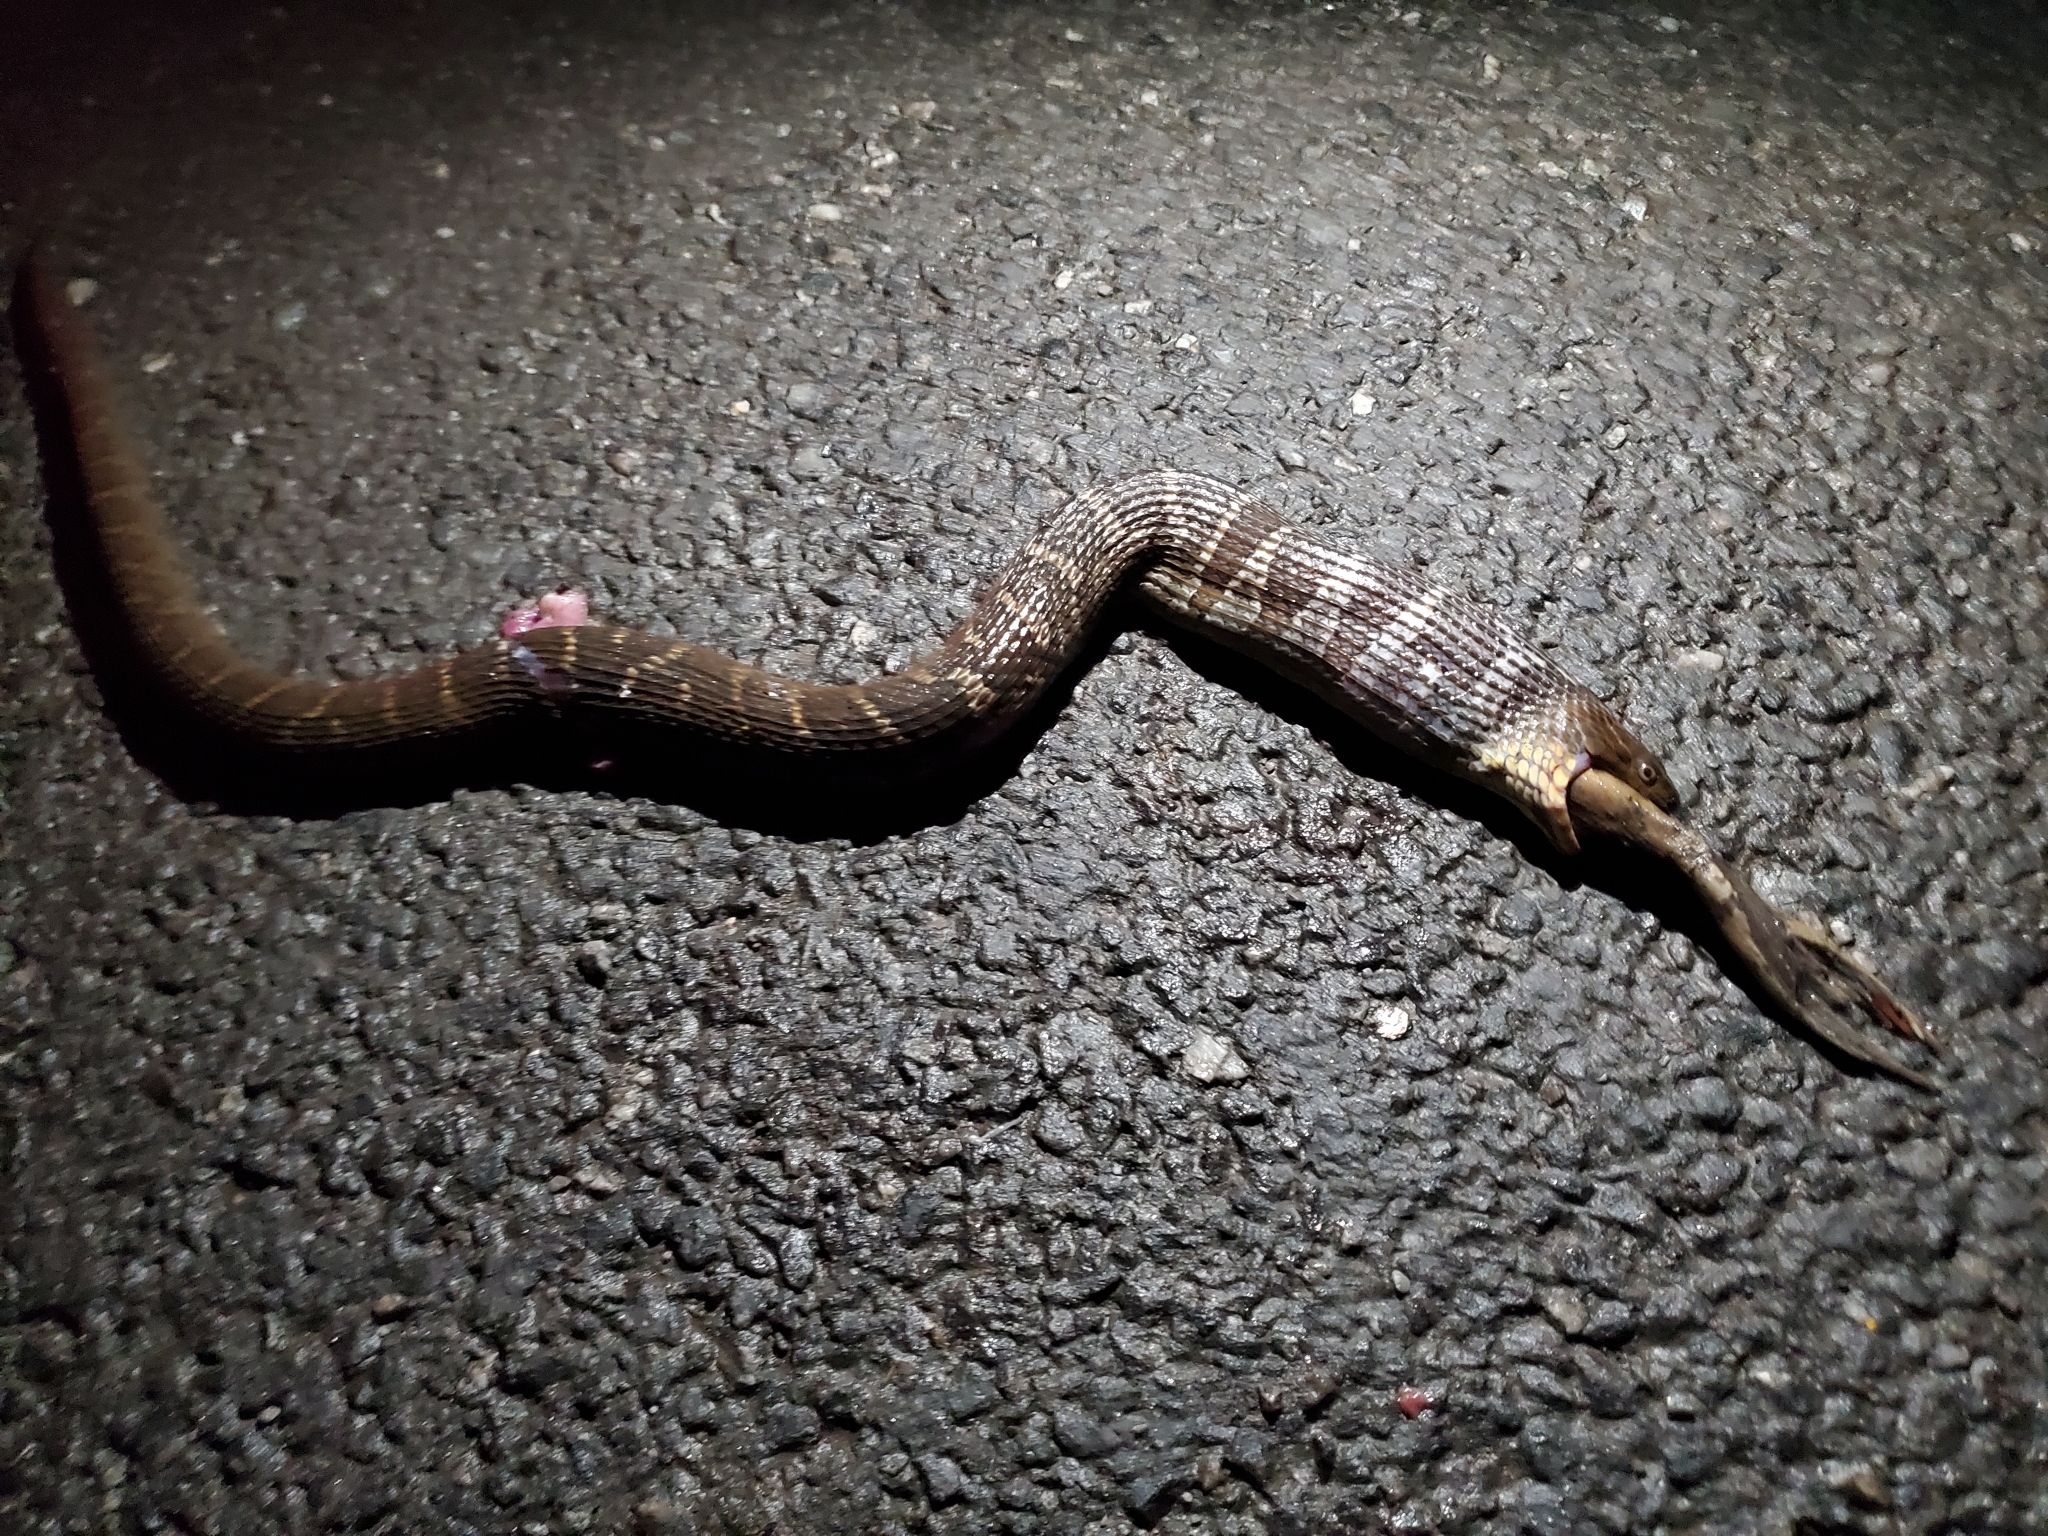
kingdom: Animalia
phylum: Chordata
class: Squamata
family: Colubridae
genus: Nerodia
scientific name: Nerodia sipedon
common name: Northern water snake
